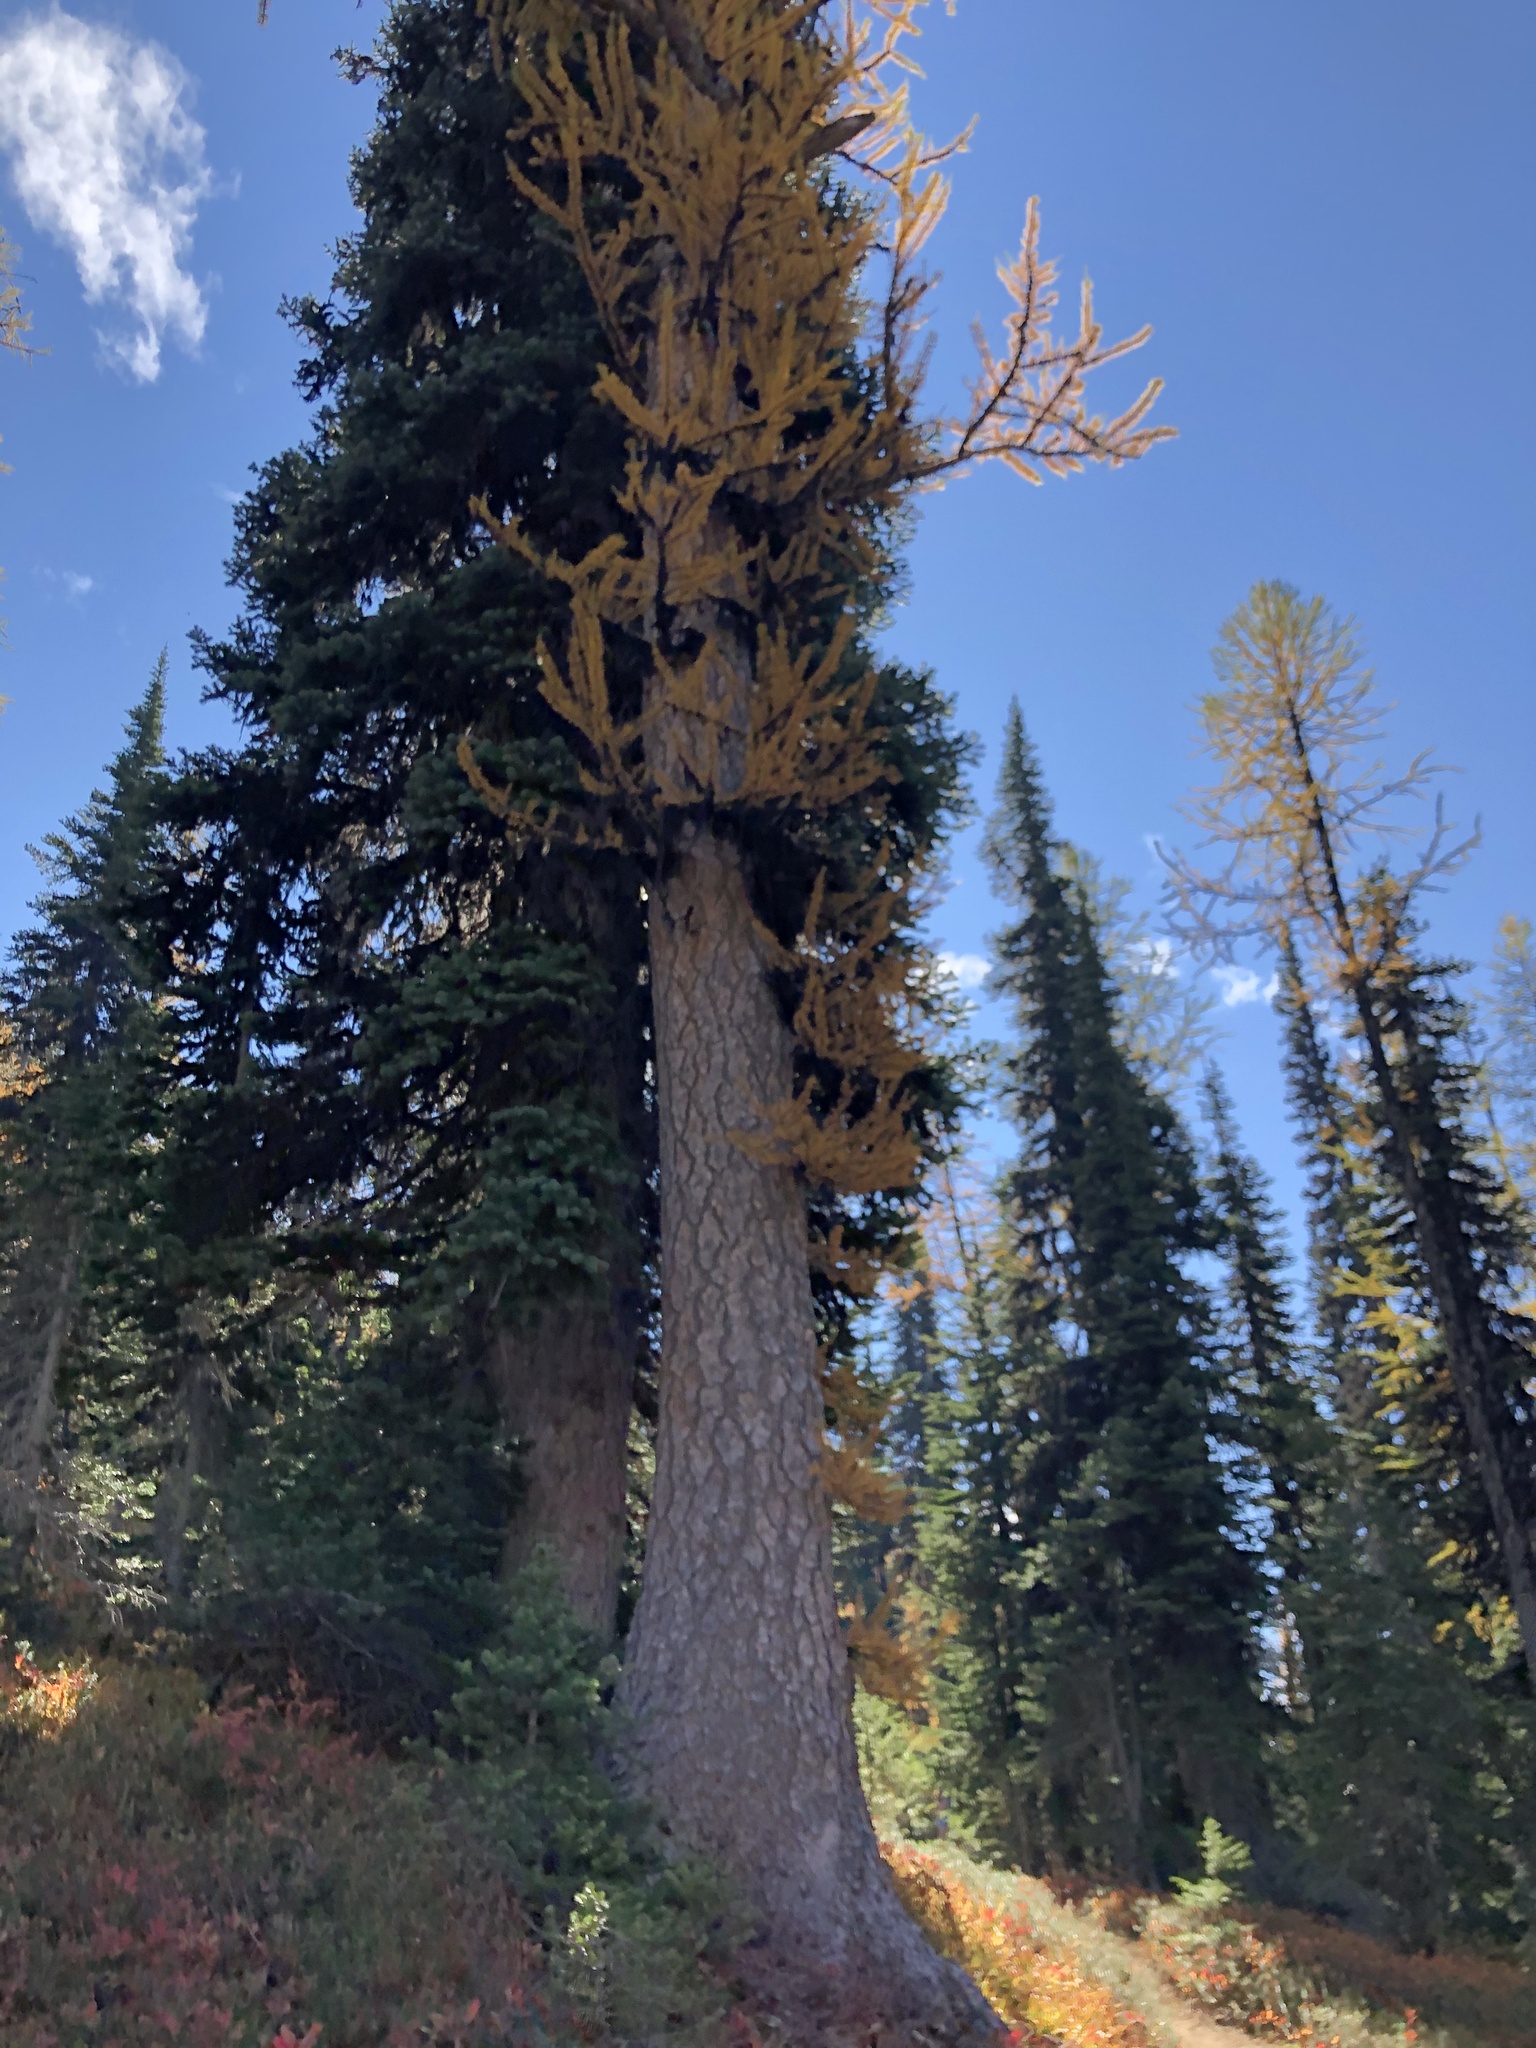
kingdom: Plantae
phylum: Tracheophyta
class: Pinopsida
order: Pinales
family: Pinaceae
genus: Larix
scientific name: Larix lyallii
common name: Alpine larch
